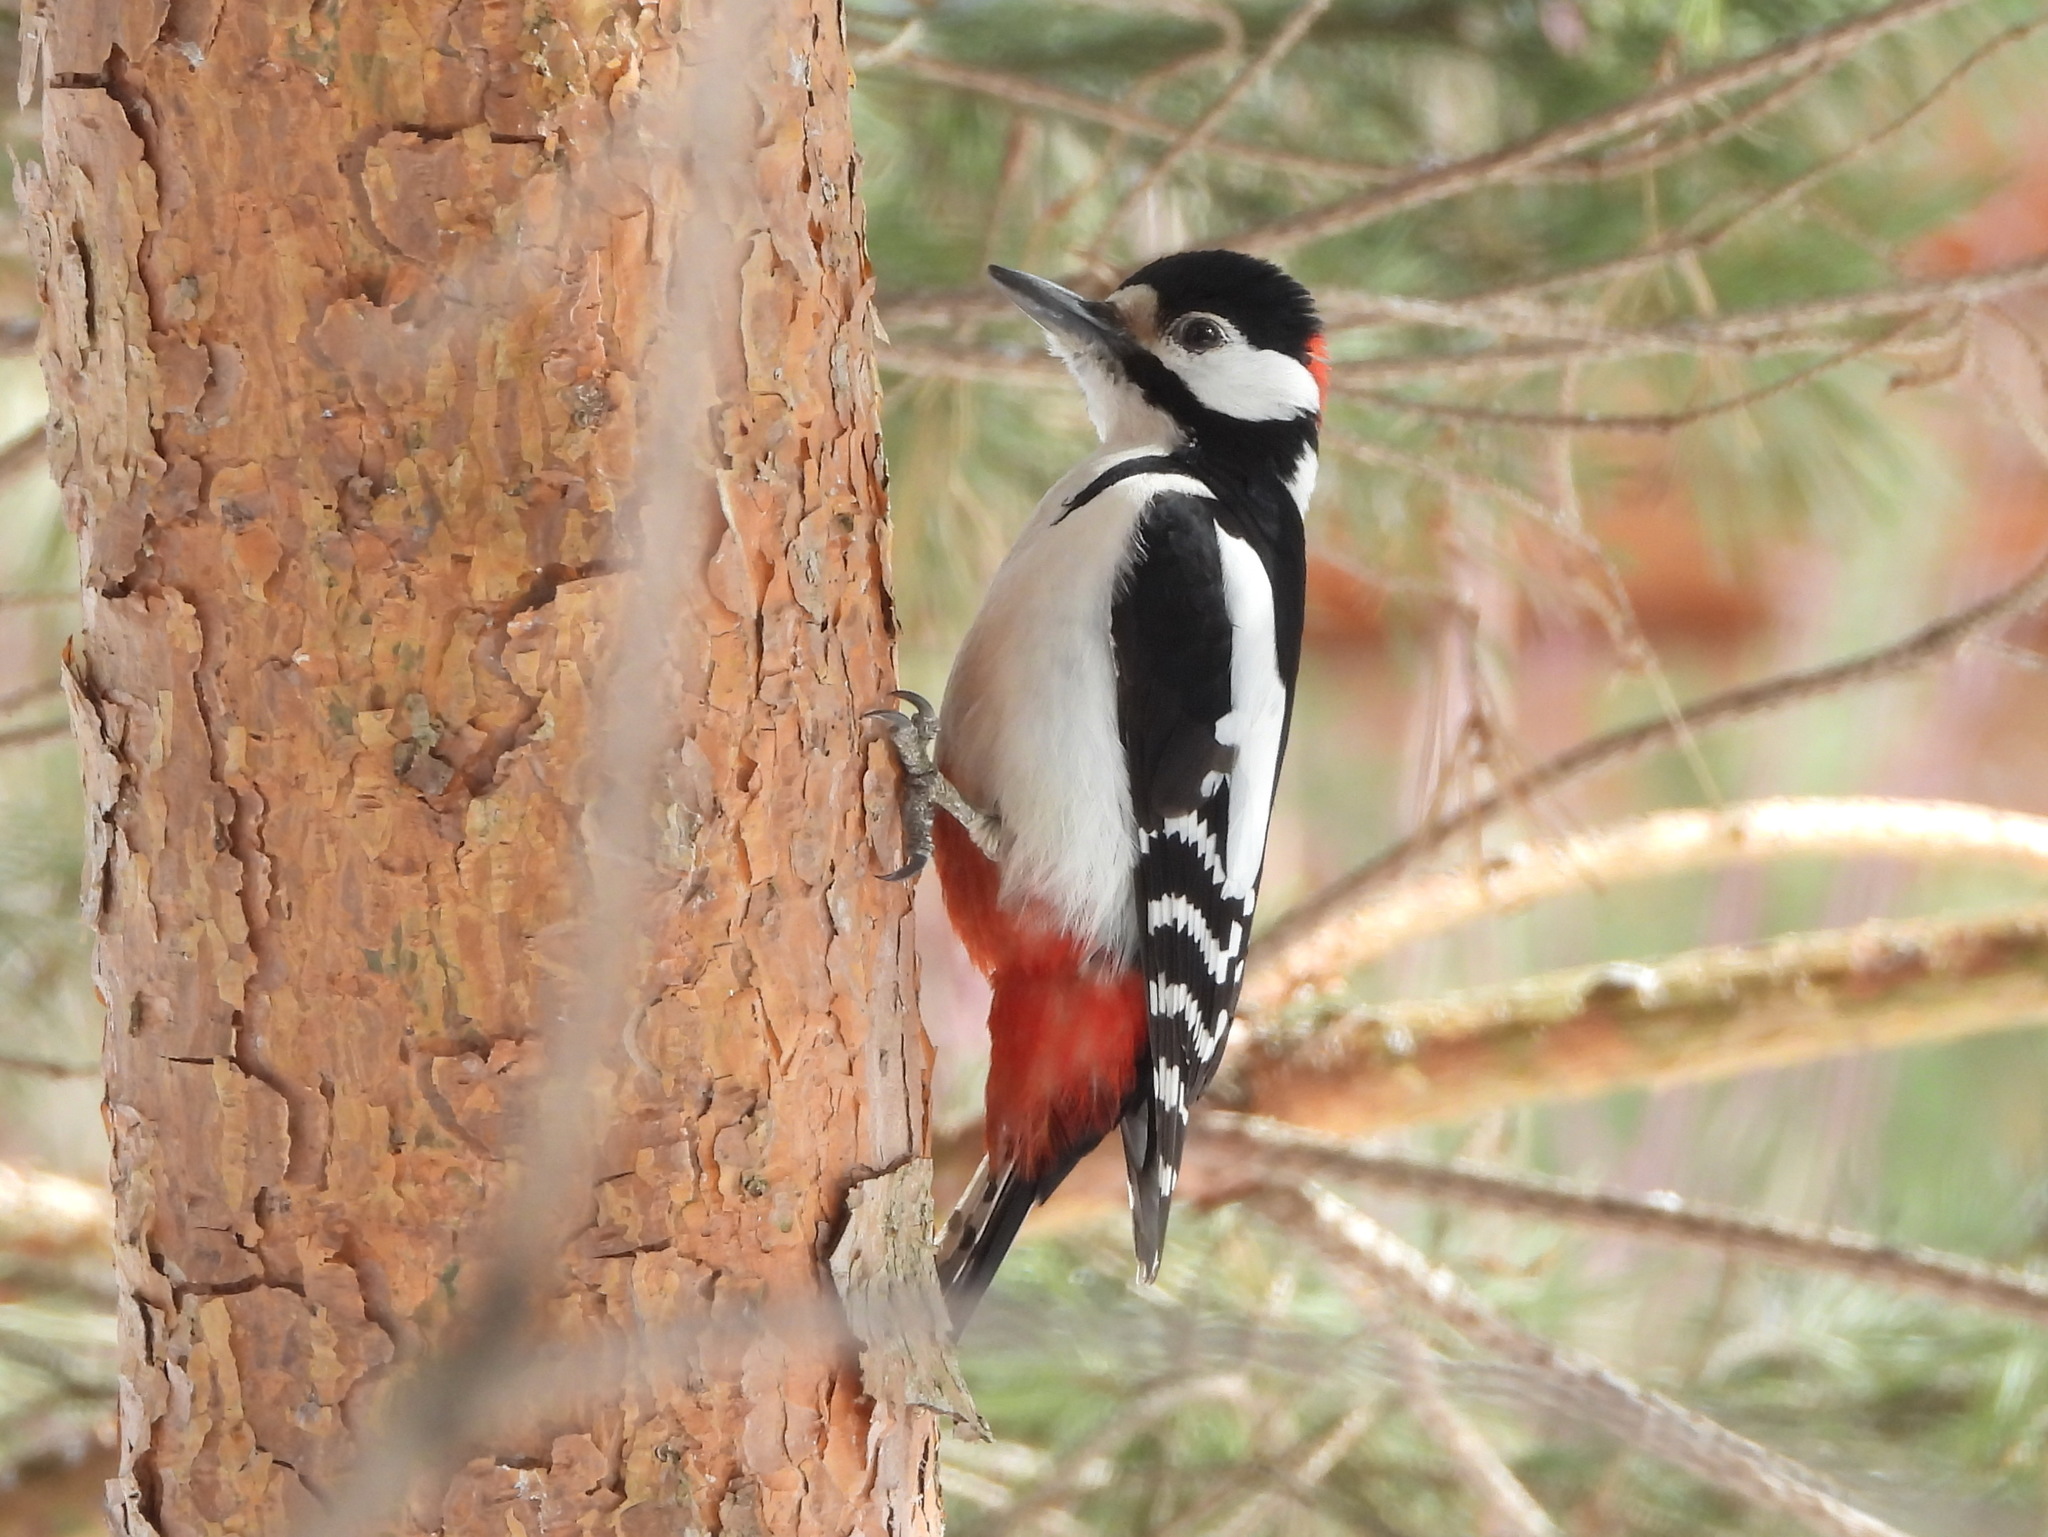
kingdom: Animalia
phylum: Chordata
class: Aves
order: Piciformes
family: Picidae
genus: Dendrocopos
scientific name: Dendrocopos major
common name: Great spotted woodpecker
